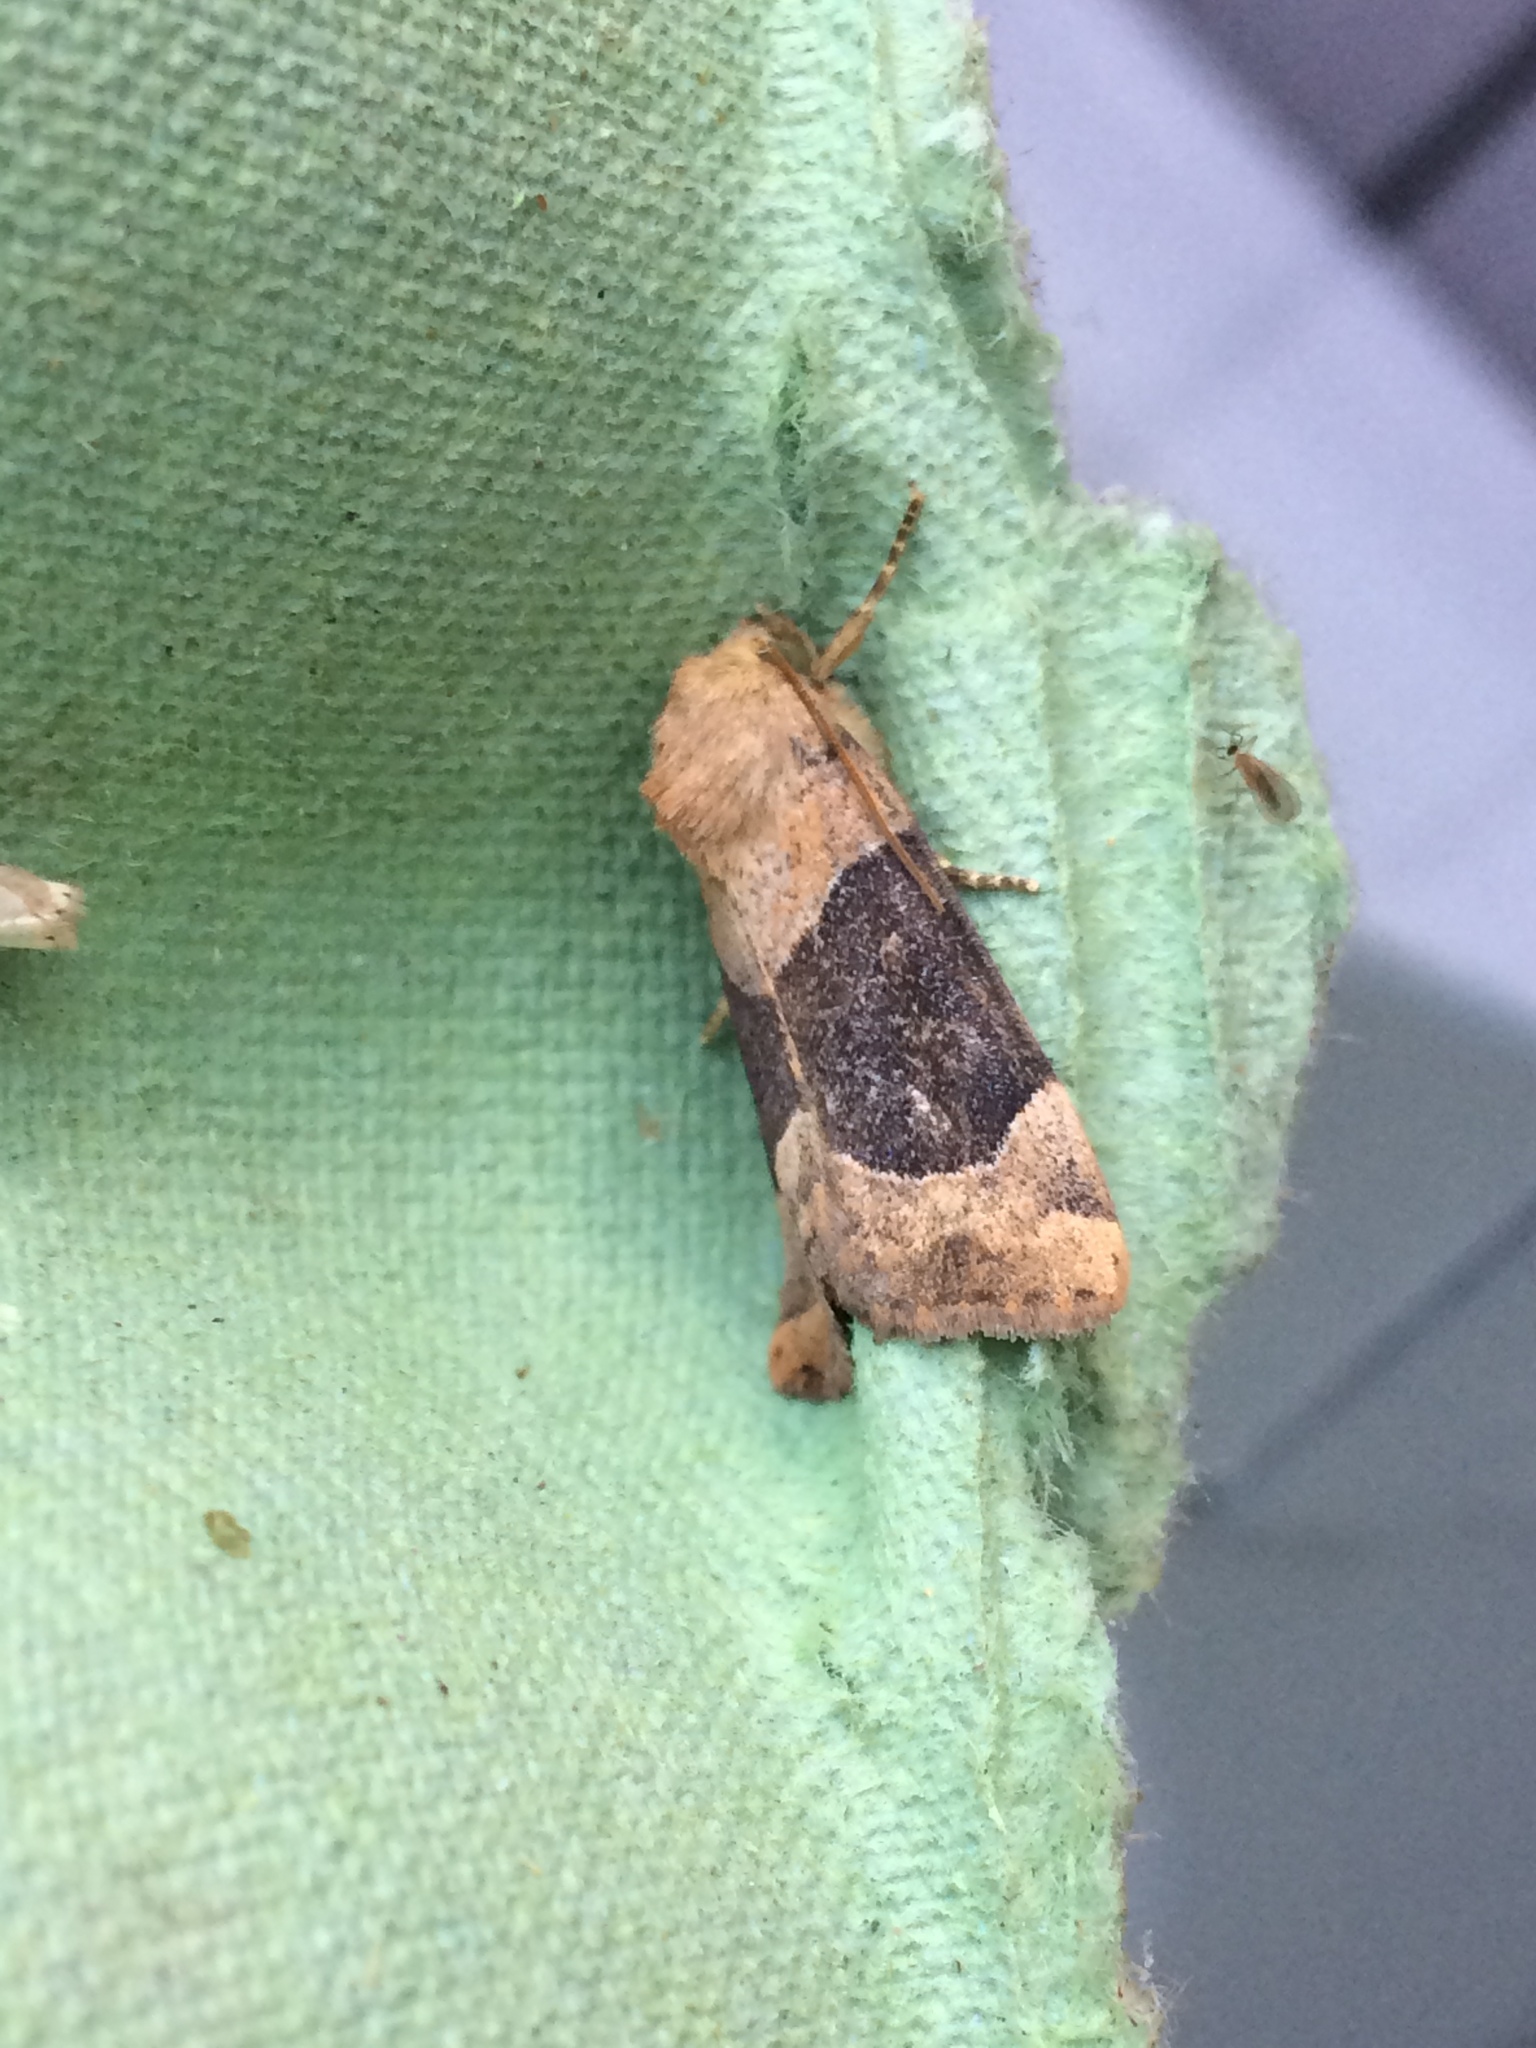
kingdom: Animalia
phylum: Arthropoda
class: Insecta
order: Lepidoptera
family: Noctuidae
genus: Cosmia
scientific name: Cosmia trapezina
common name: Dun-bar
